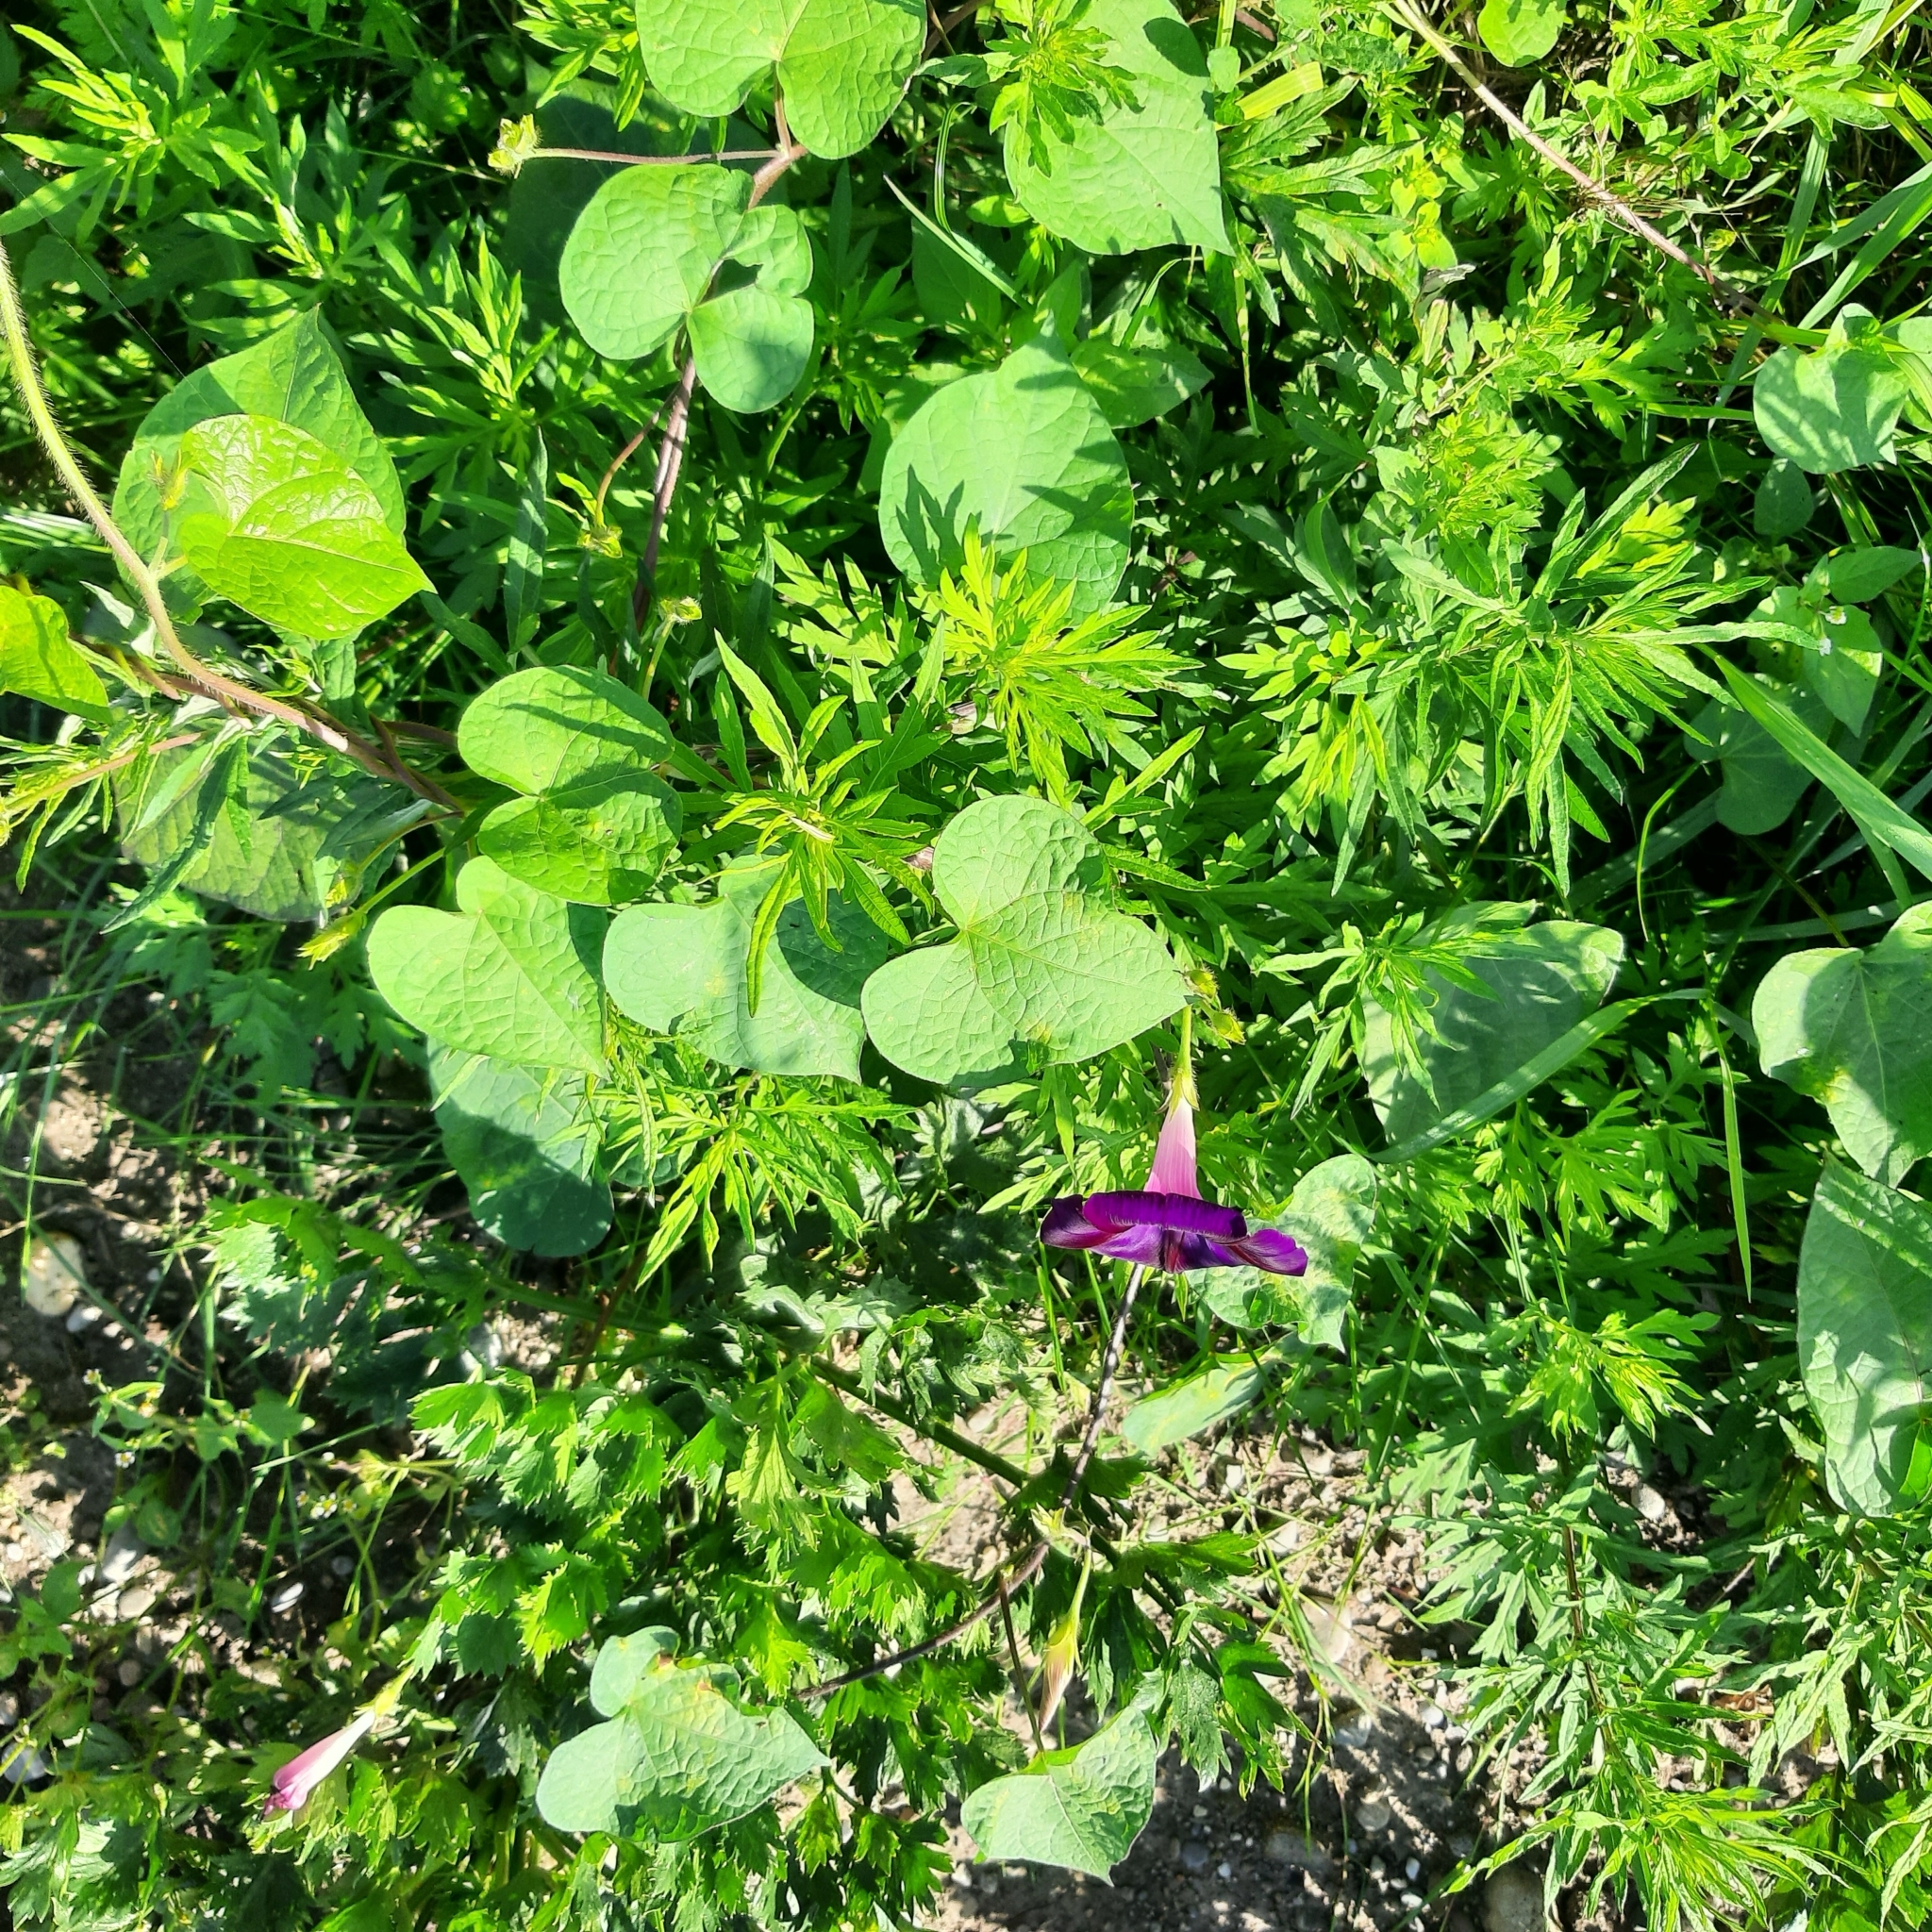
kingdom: Plantae
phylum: Tracheophyta
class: Magnoliopsida
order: Solanales
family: Convolvulaceae
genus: Ipomoea
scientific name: Ipomoea purpurea
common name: Common morning-glory
